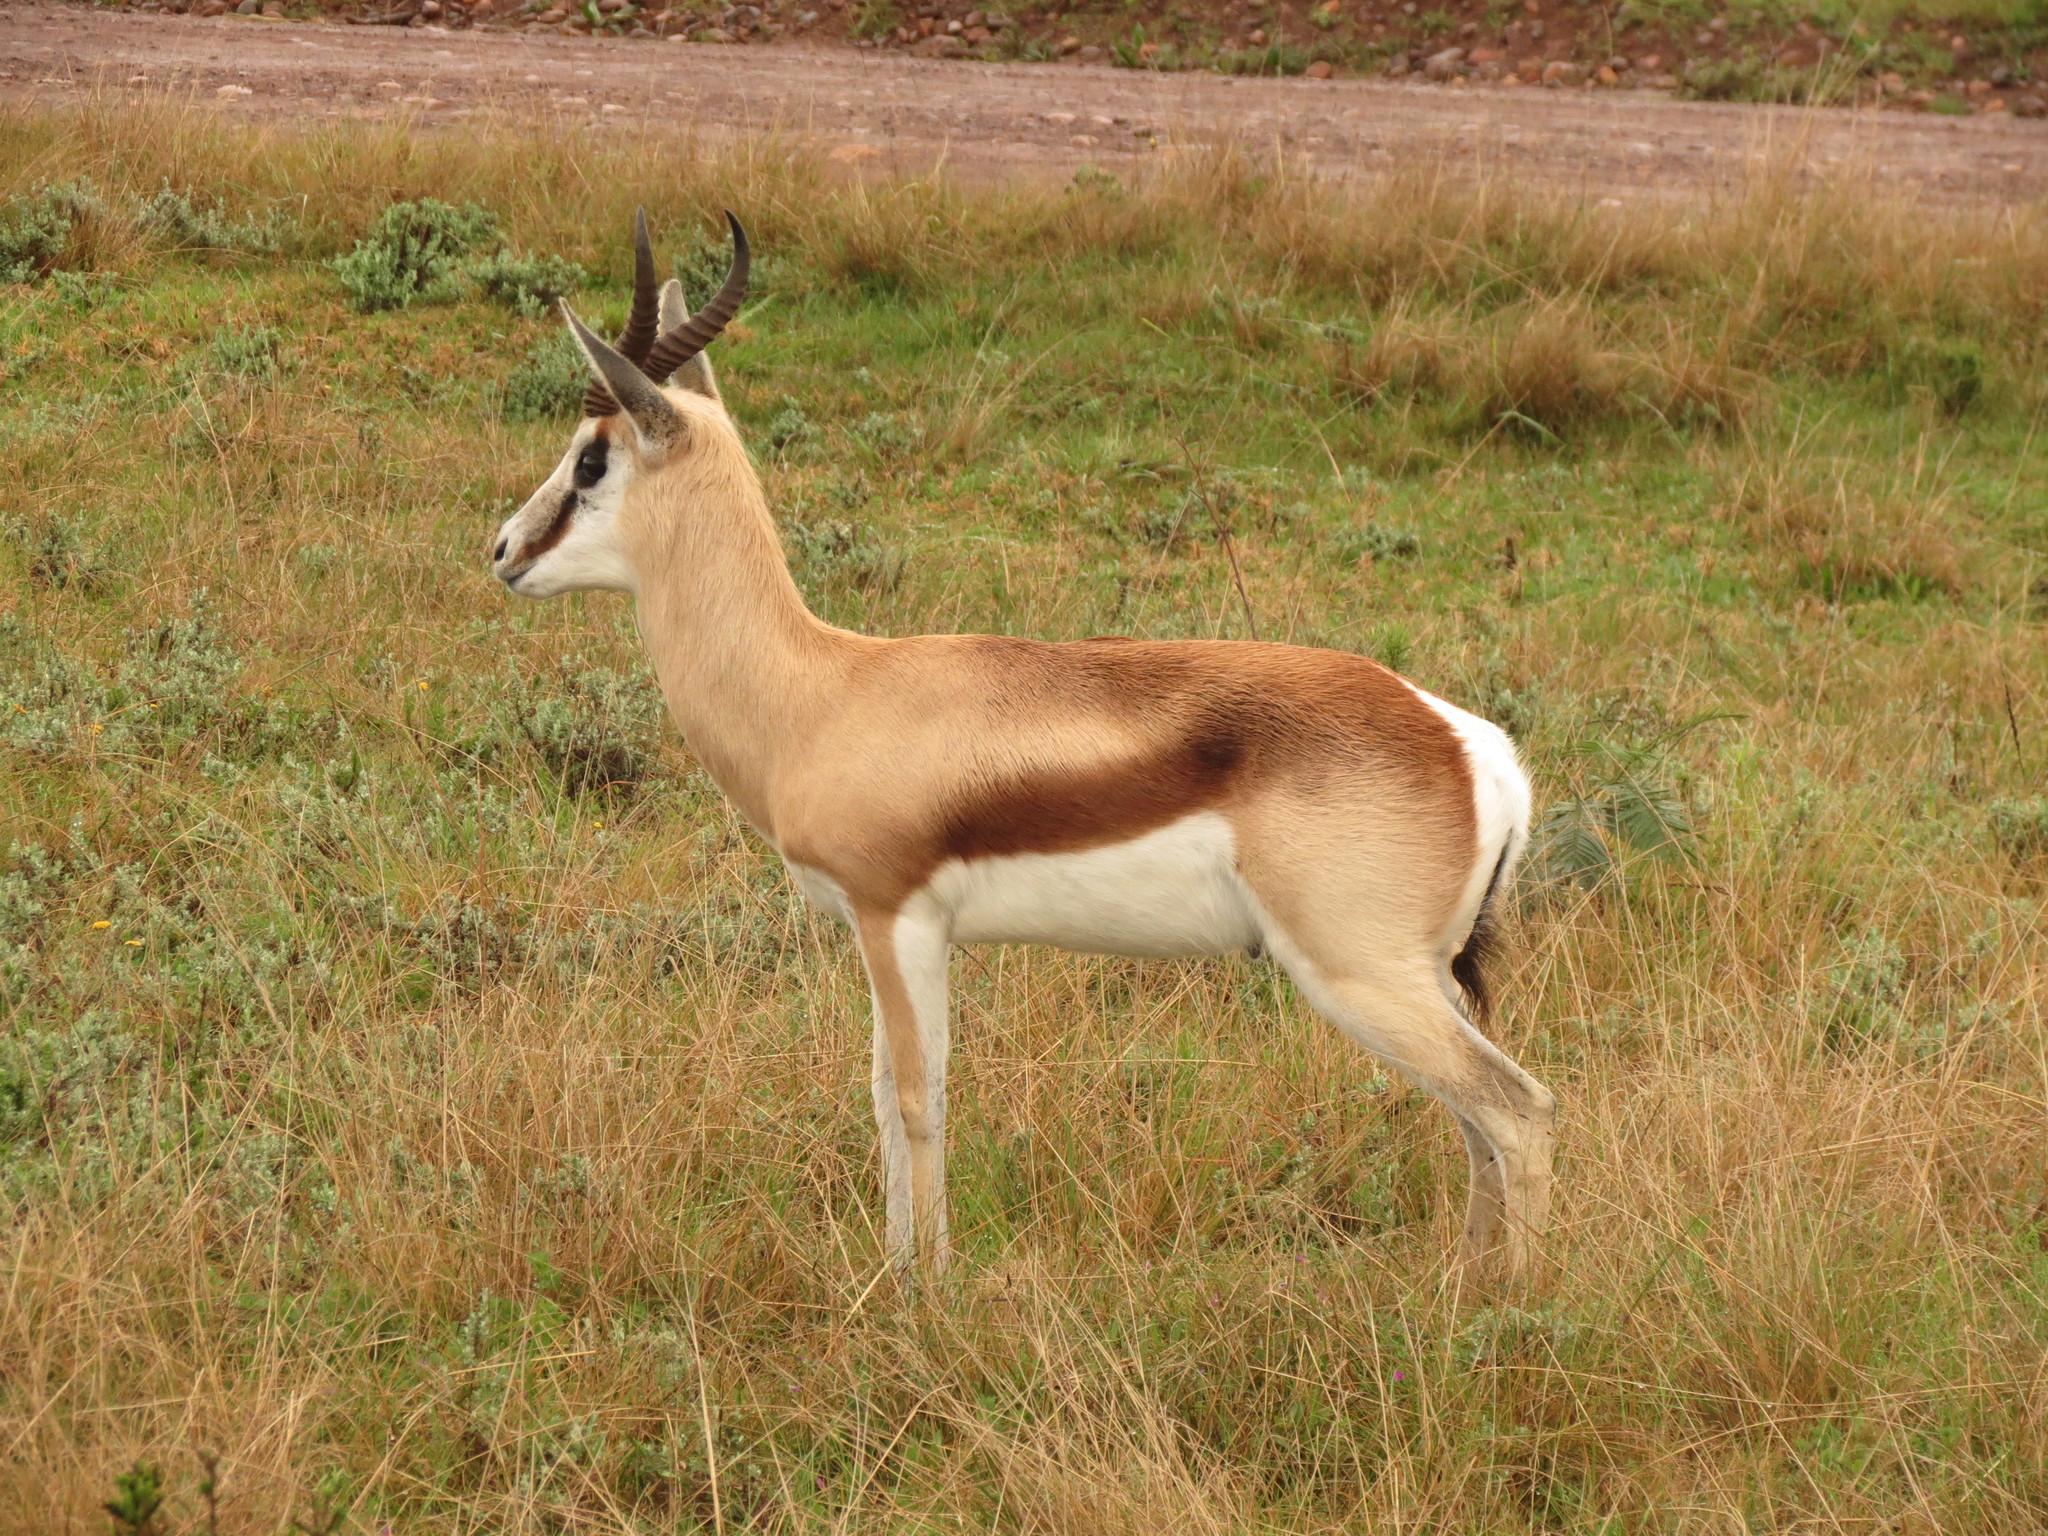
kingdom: Animalia
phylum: Chordata
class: Mammalia
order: Artiodactyla
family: Bovidae
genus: Antidorcas
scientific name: Antidorcas marsupialis
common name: Springbok
